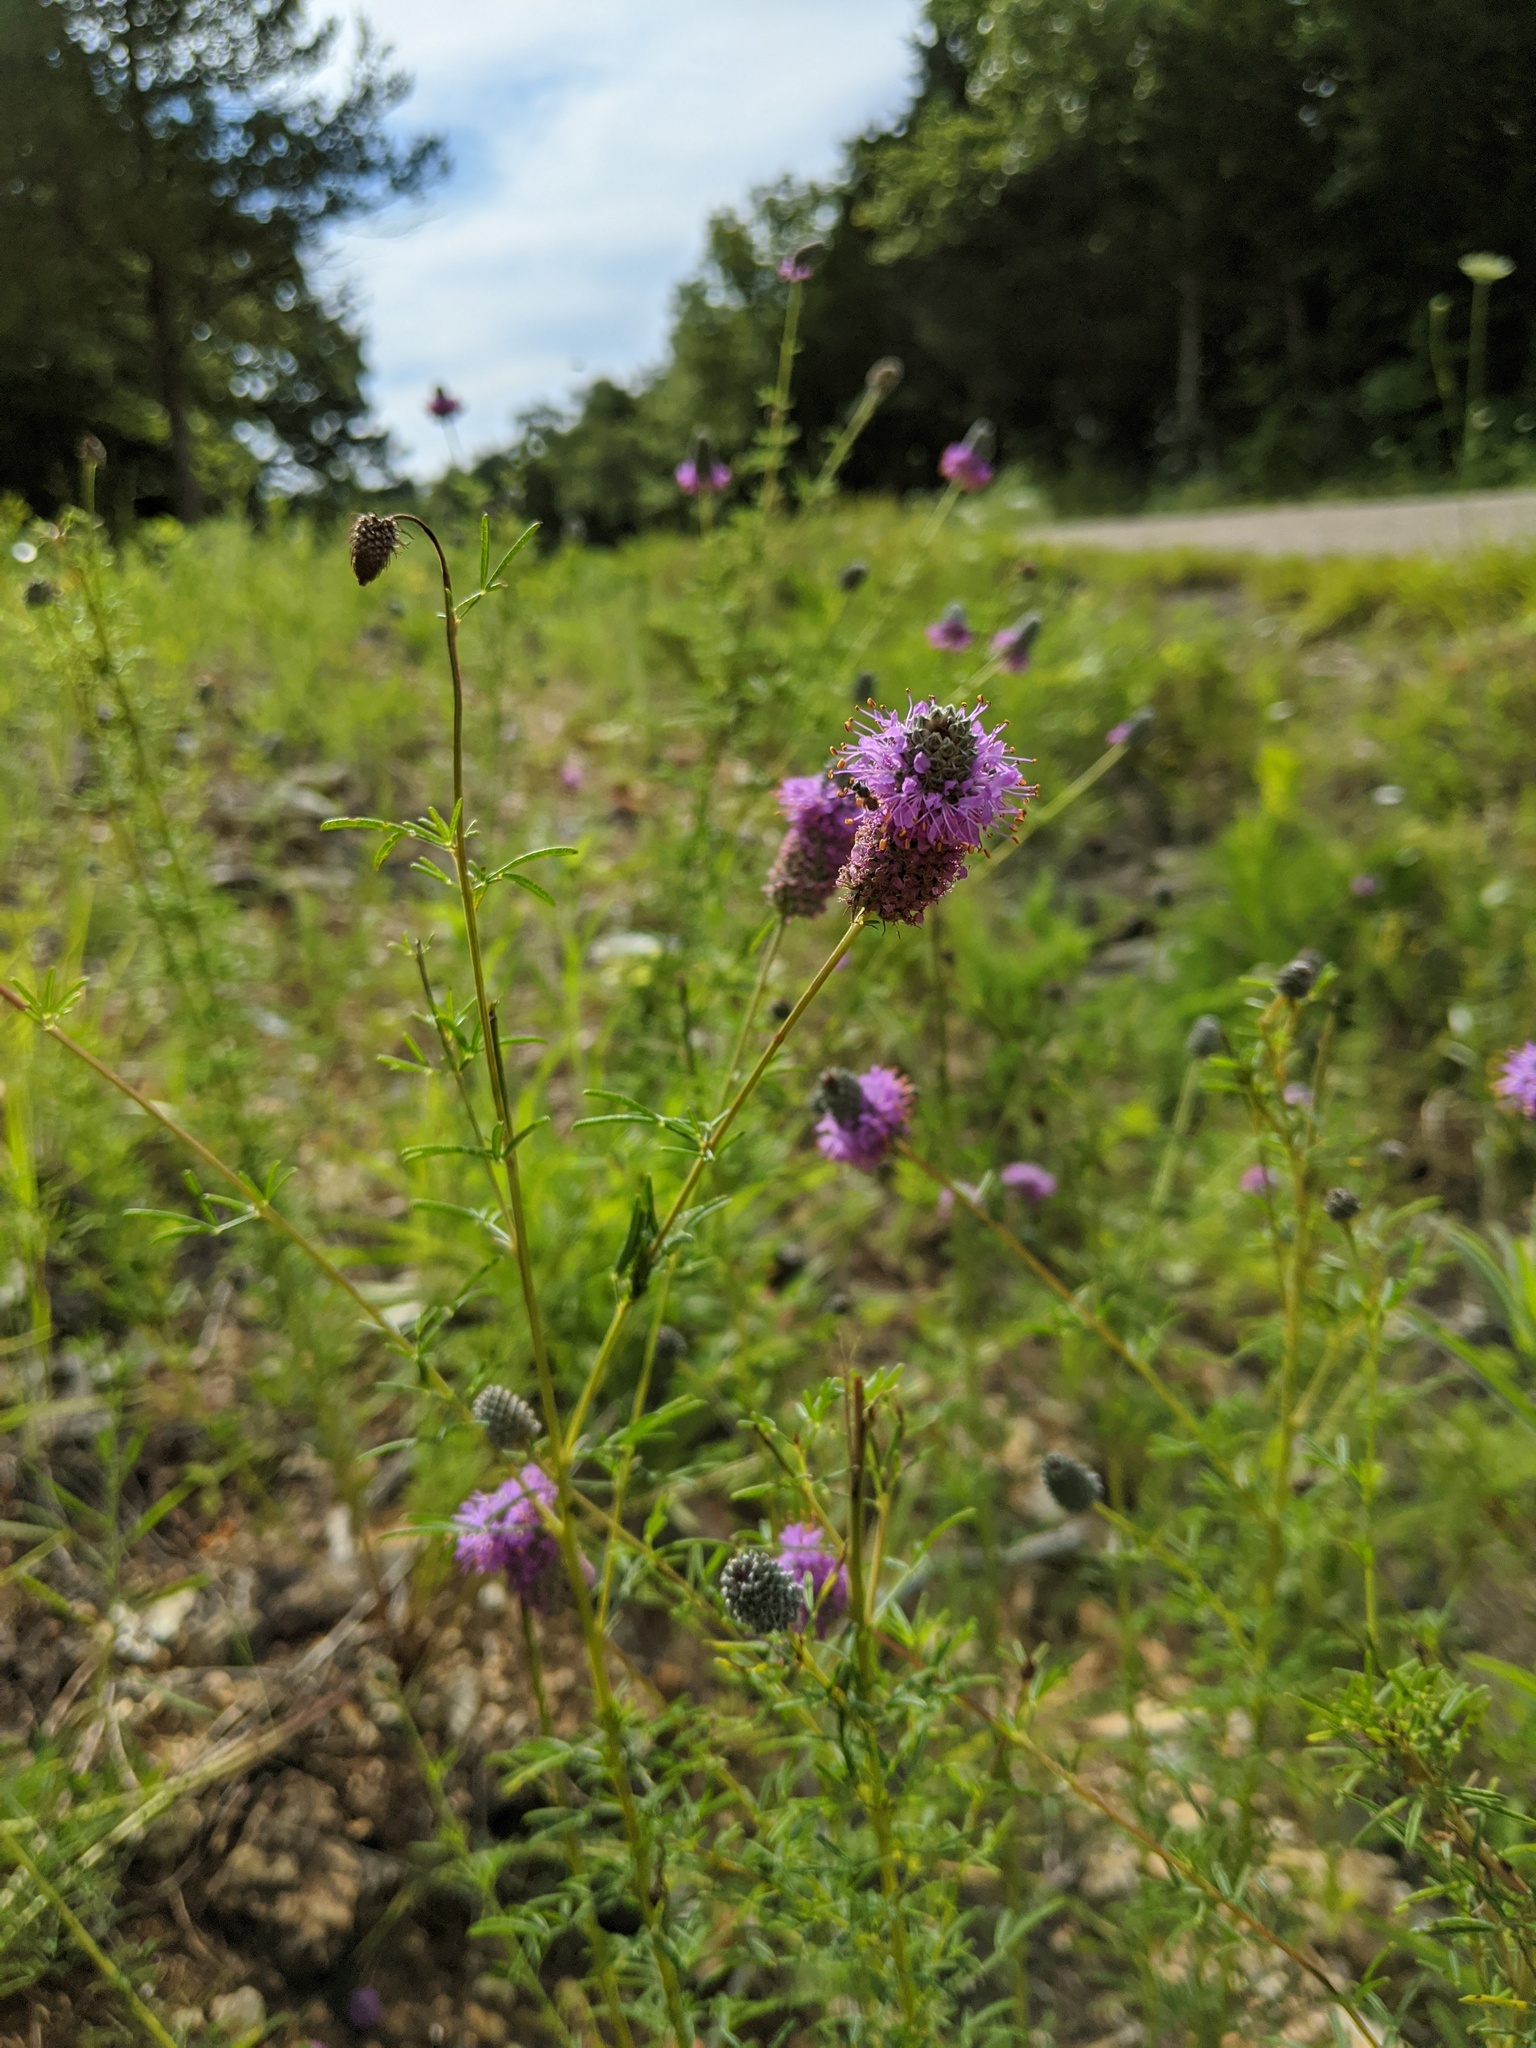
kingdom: Plantae
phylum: Tracheophyta
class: Magnoliopsida
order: Fabales
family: Fabaceae
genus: Dalea
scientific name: Dalea purpurea
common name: Purple prairie-clover
